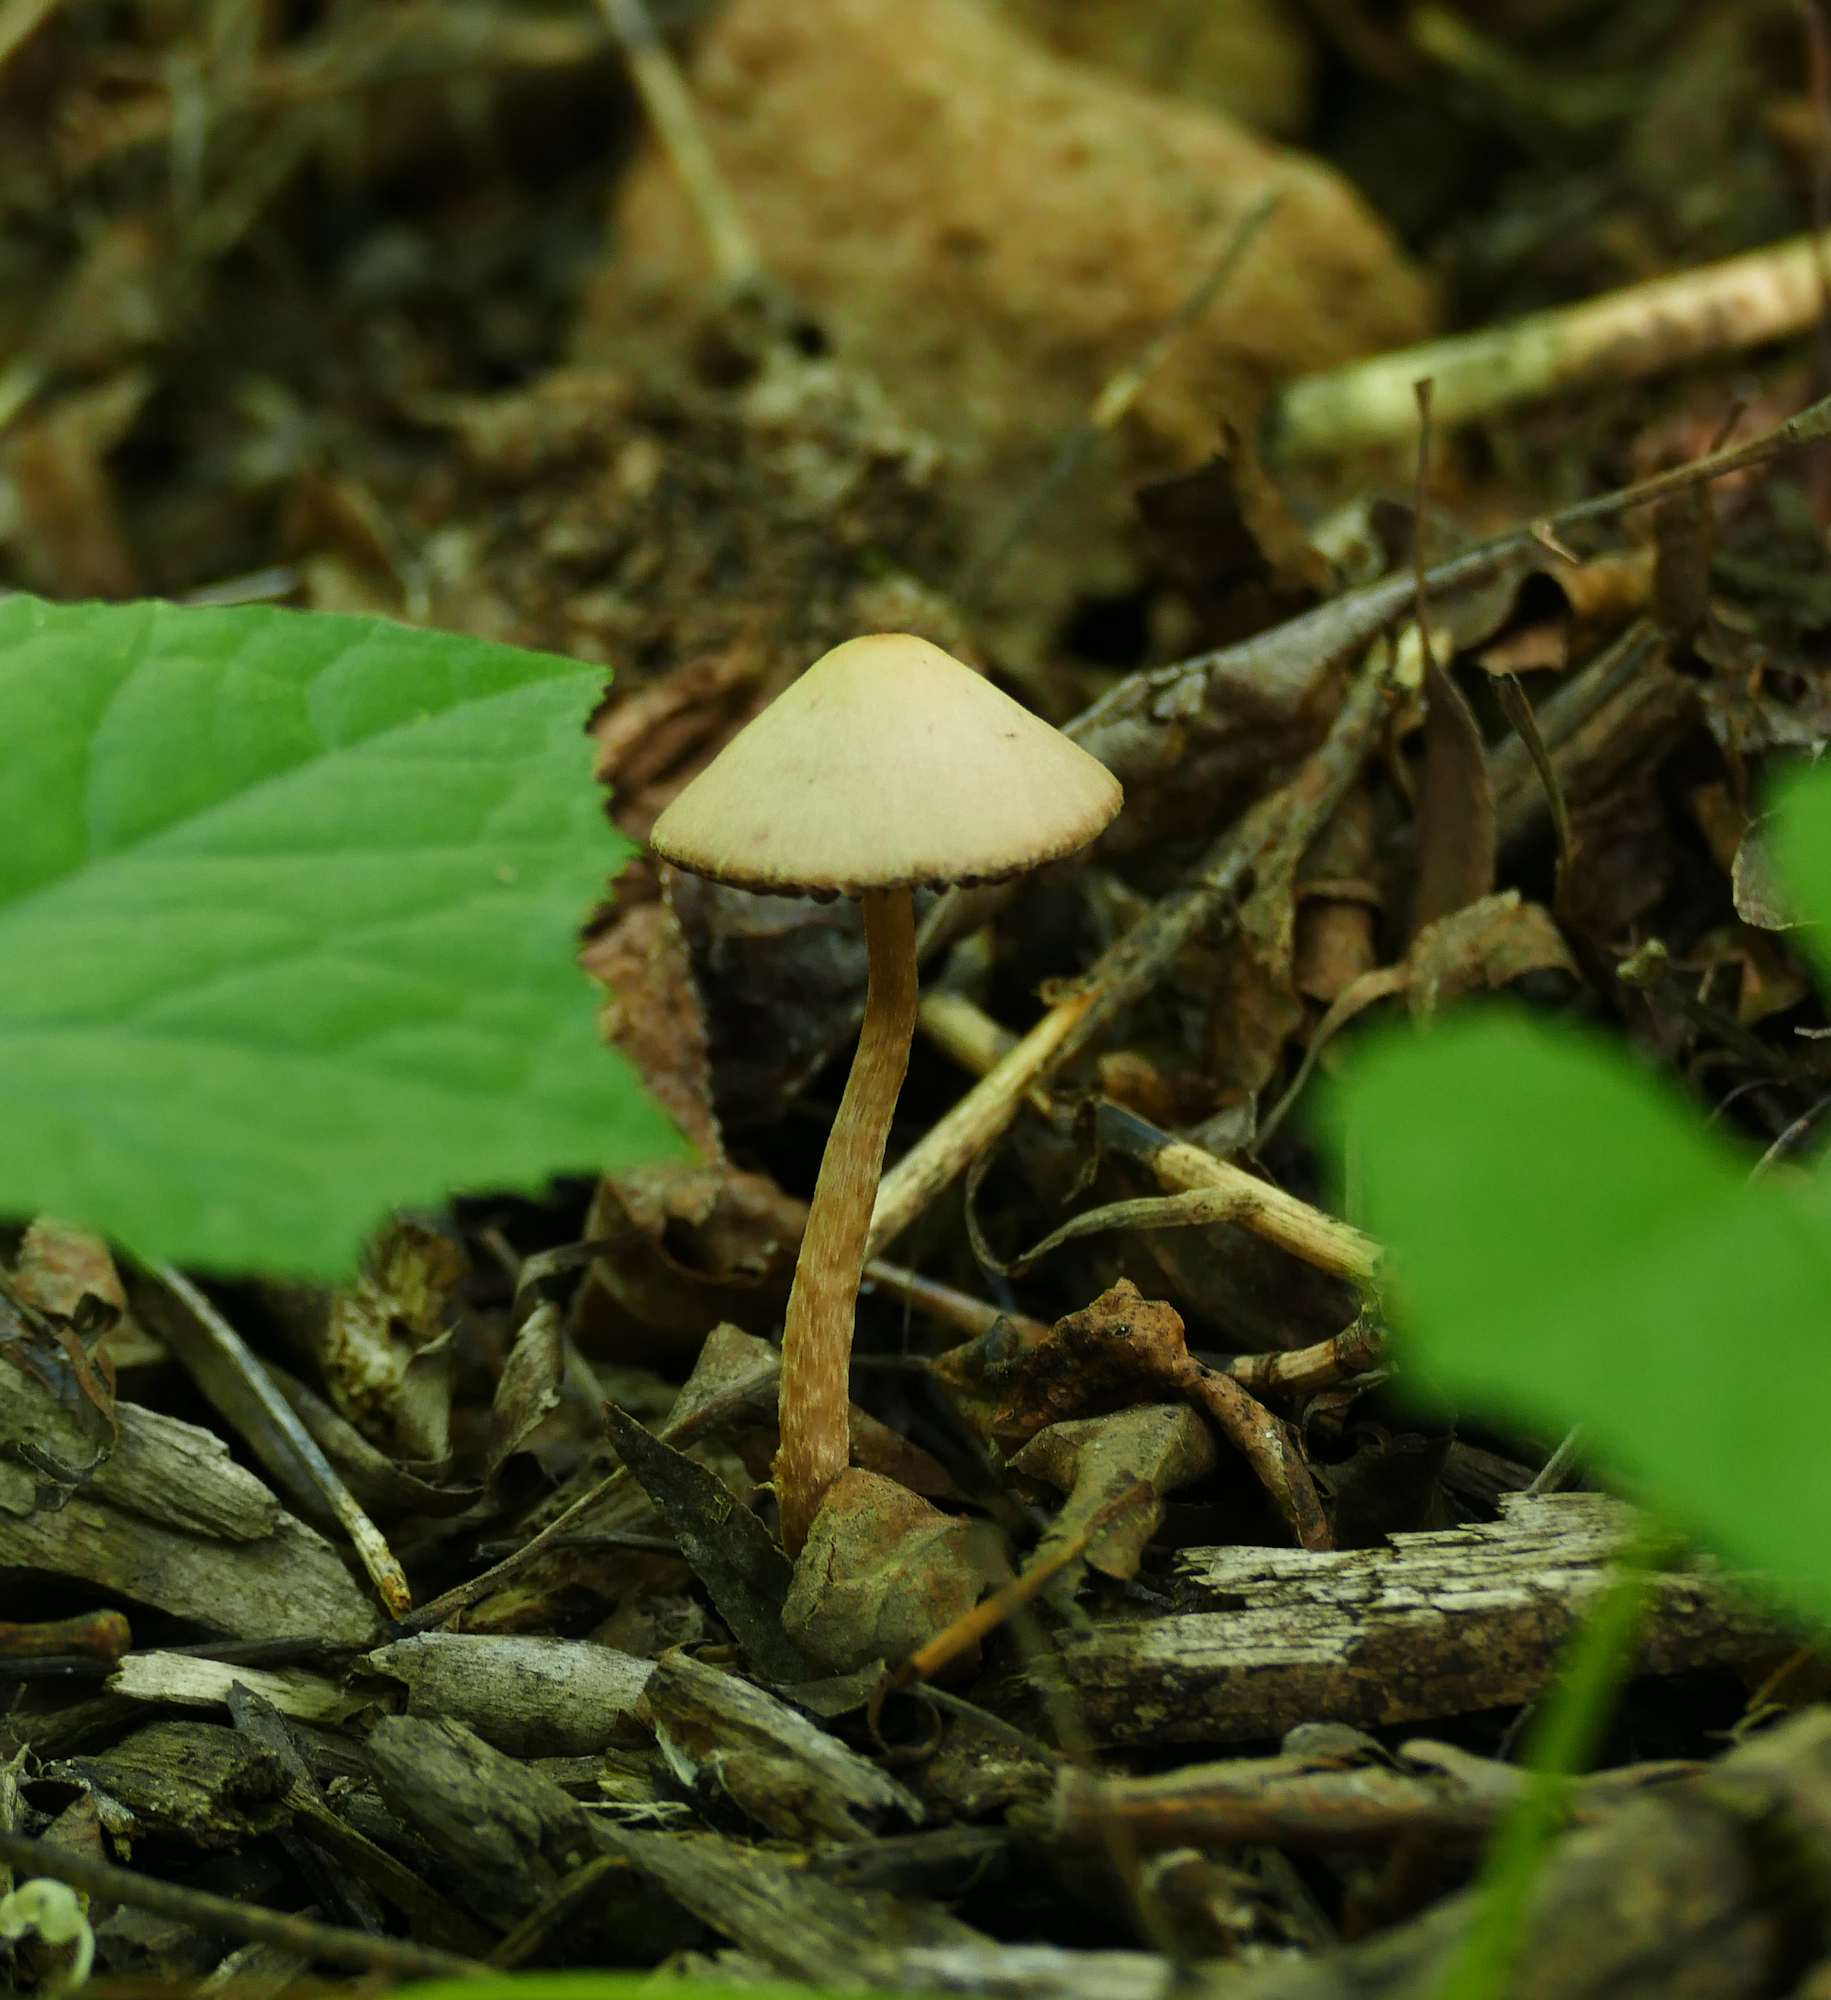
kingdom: Fungi
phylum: Basidiomycota
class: Agaricomycetes
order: Agaricales
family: Psathyrellaceae
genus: Psathyrella
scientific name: Psathyrella
